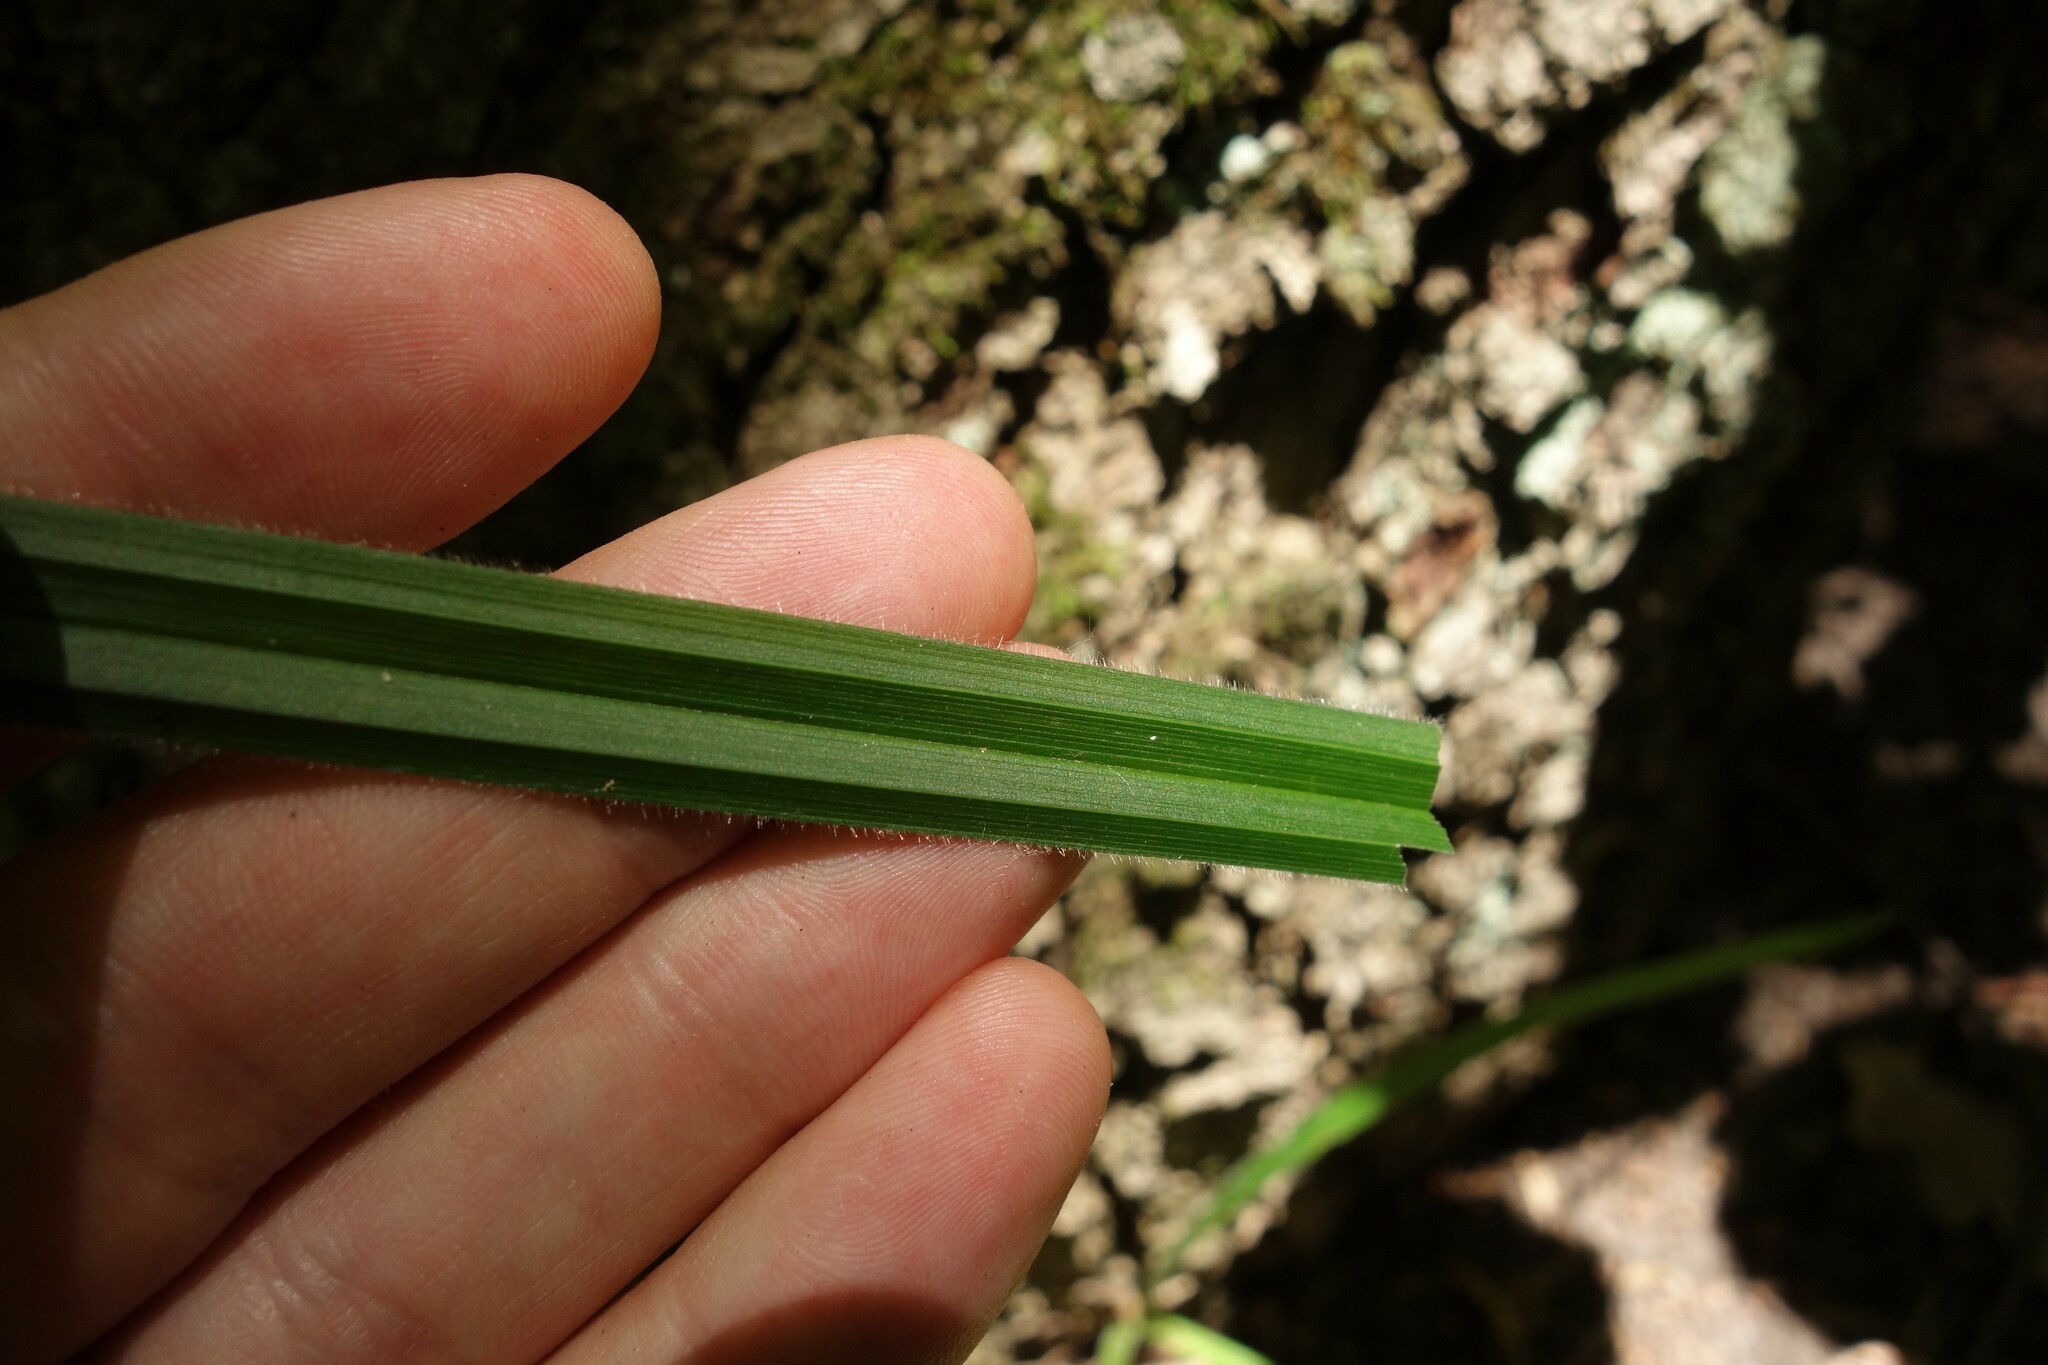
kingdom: Plantae
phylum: Tracheophyta
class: Liliopsida
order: Poales
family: Cyperaceae
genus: Carex
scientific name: Carex pilosa
